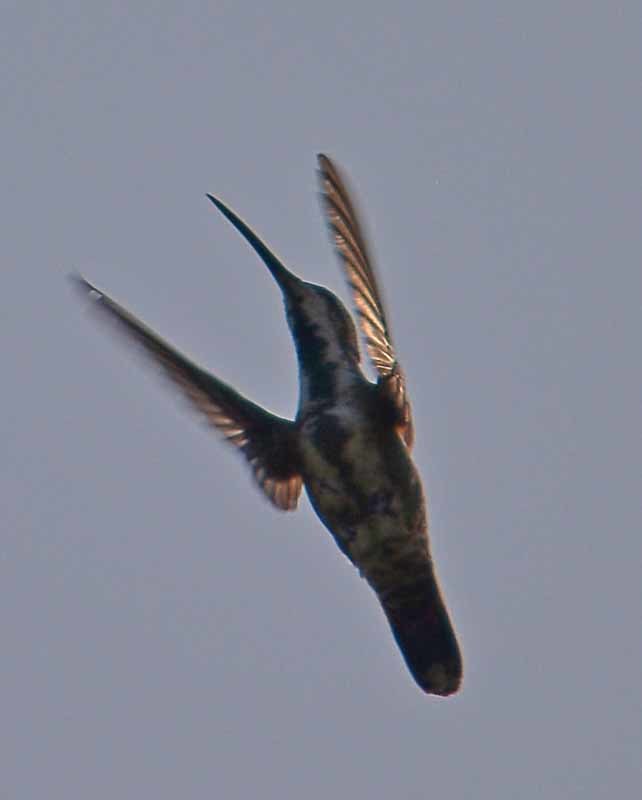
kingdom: Animalia
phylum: Chordata
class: Aves
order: Apodiformes
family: Trochilidae
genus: Anthracothorax
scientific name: Anthracothorax prevostii
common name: Green-breasted mango
